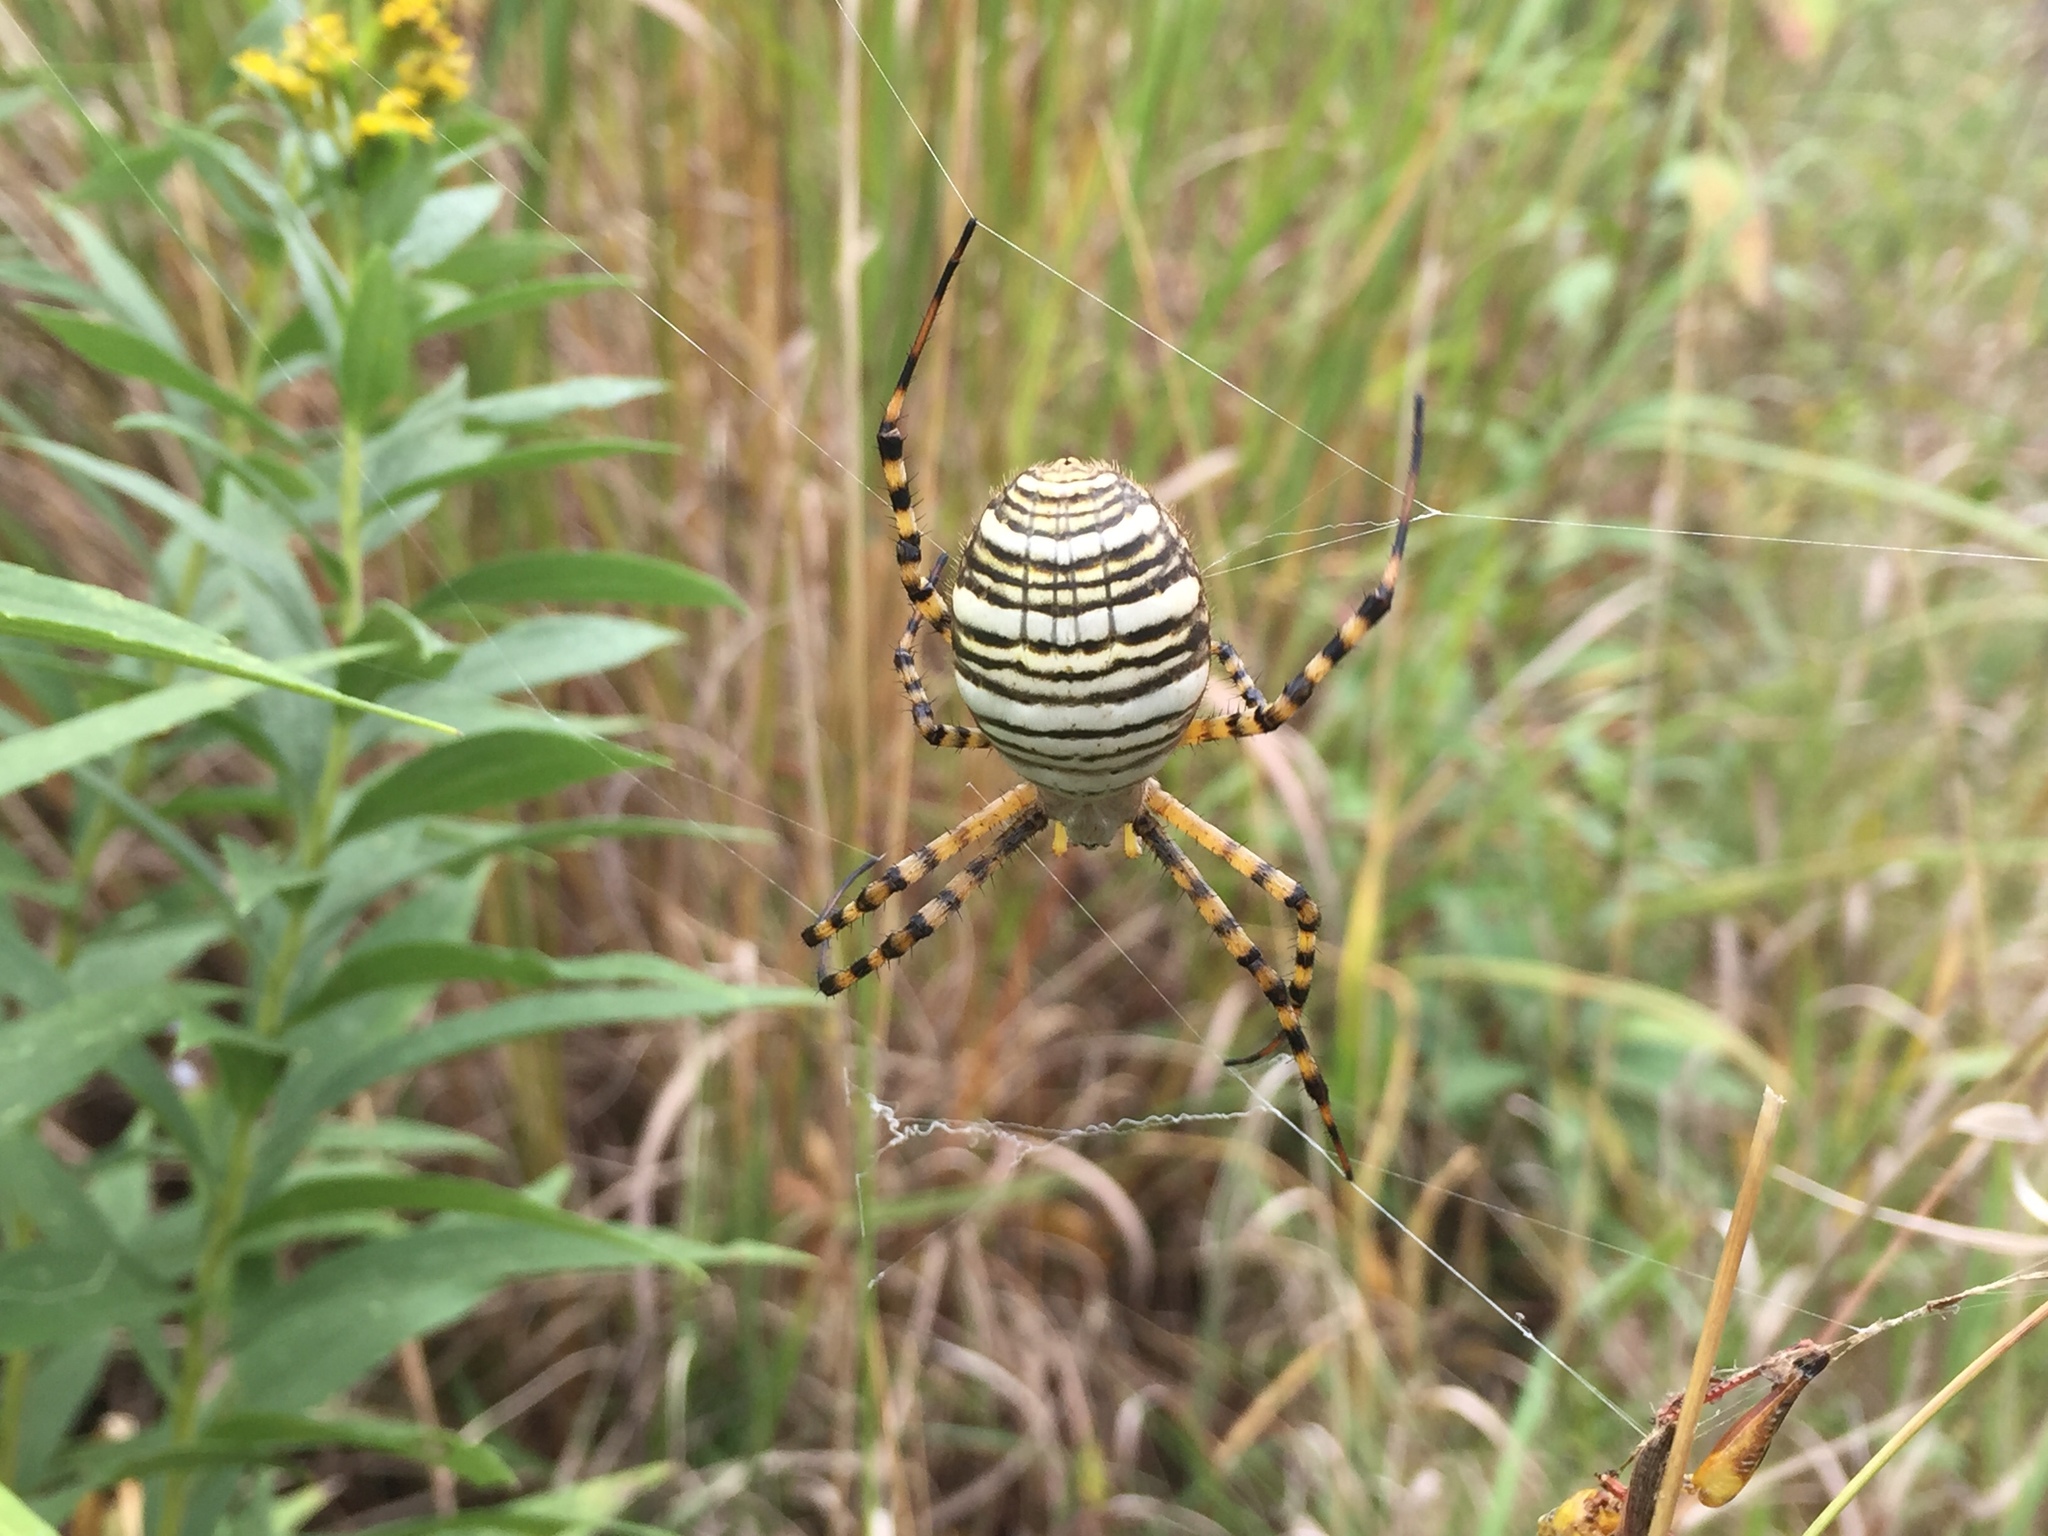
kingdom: Animalia
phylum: Arthropoda
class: Arachnida
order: Araneae
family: Araneidae
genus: Argiope
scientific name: Argiope trifasciata
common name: Banded garden spider
